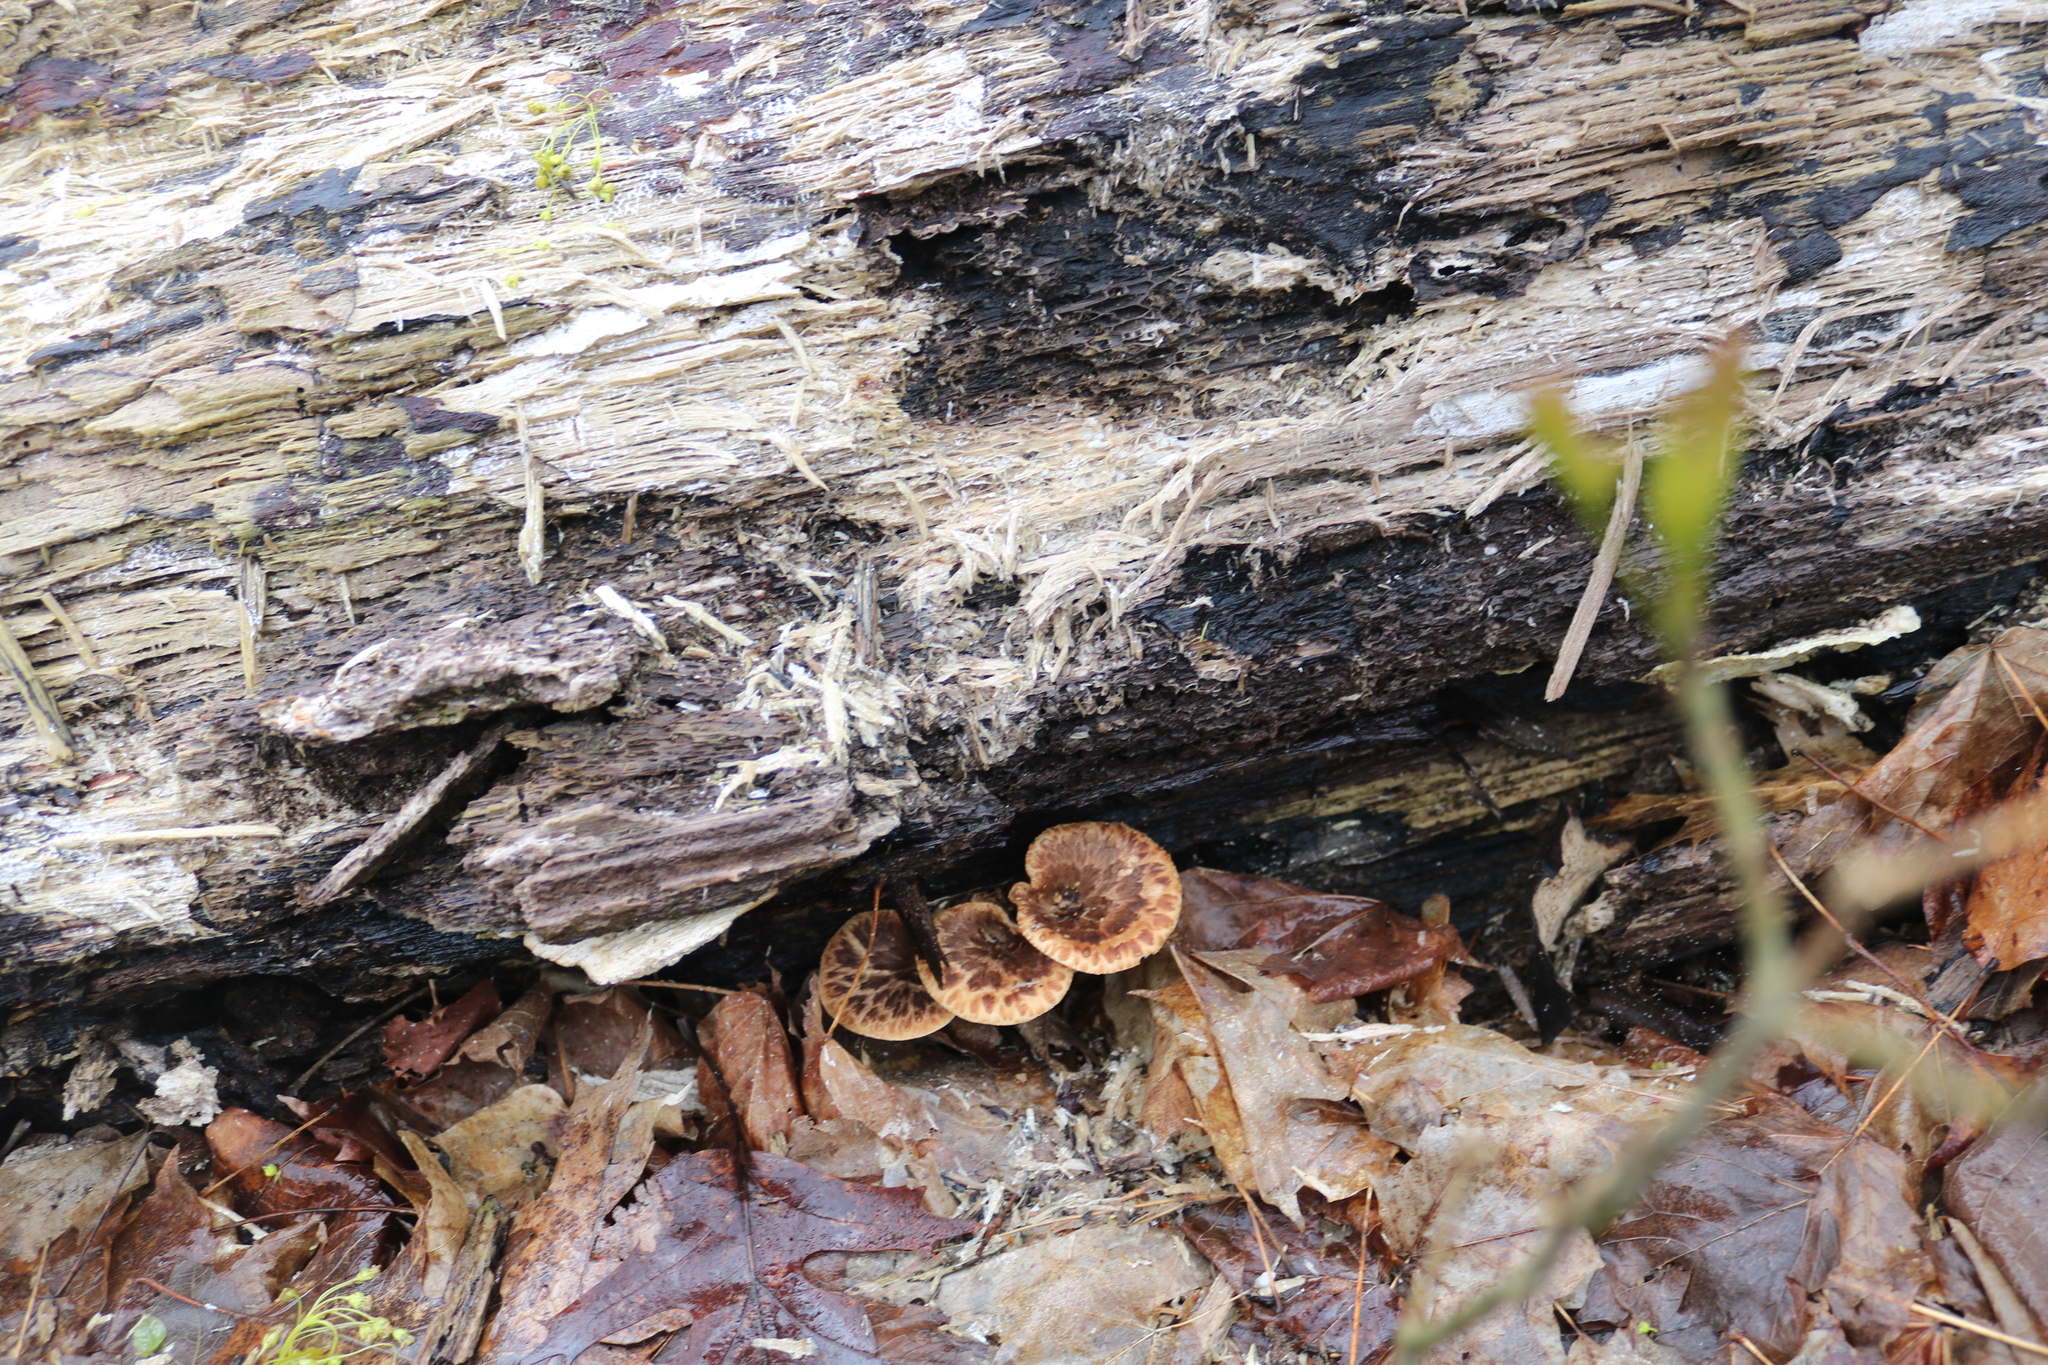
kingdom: Fungi
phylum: Basidiomycota
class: Agaricomycetes
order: Polyporales
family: Polyporaceae
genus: Cerioporus
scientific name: Cerioporus squamosus
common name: Dryad's saddle
